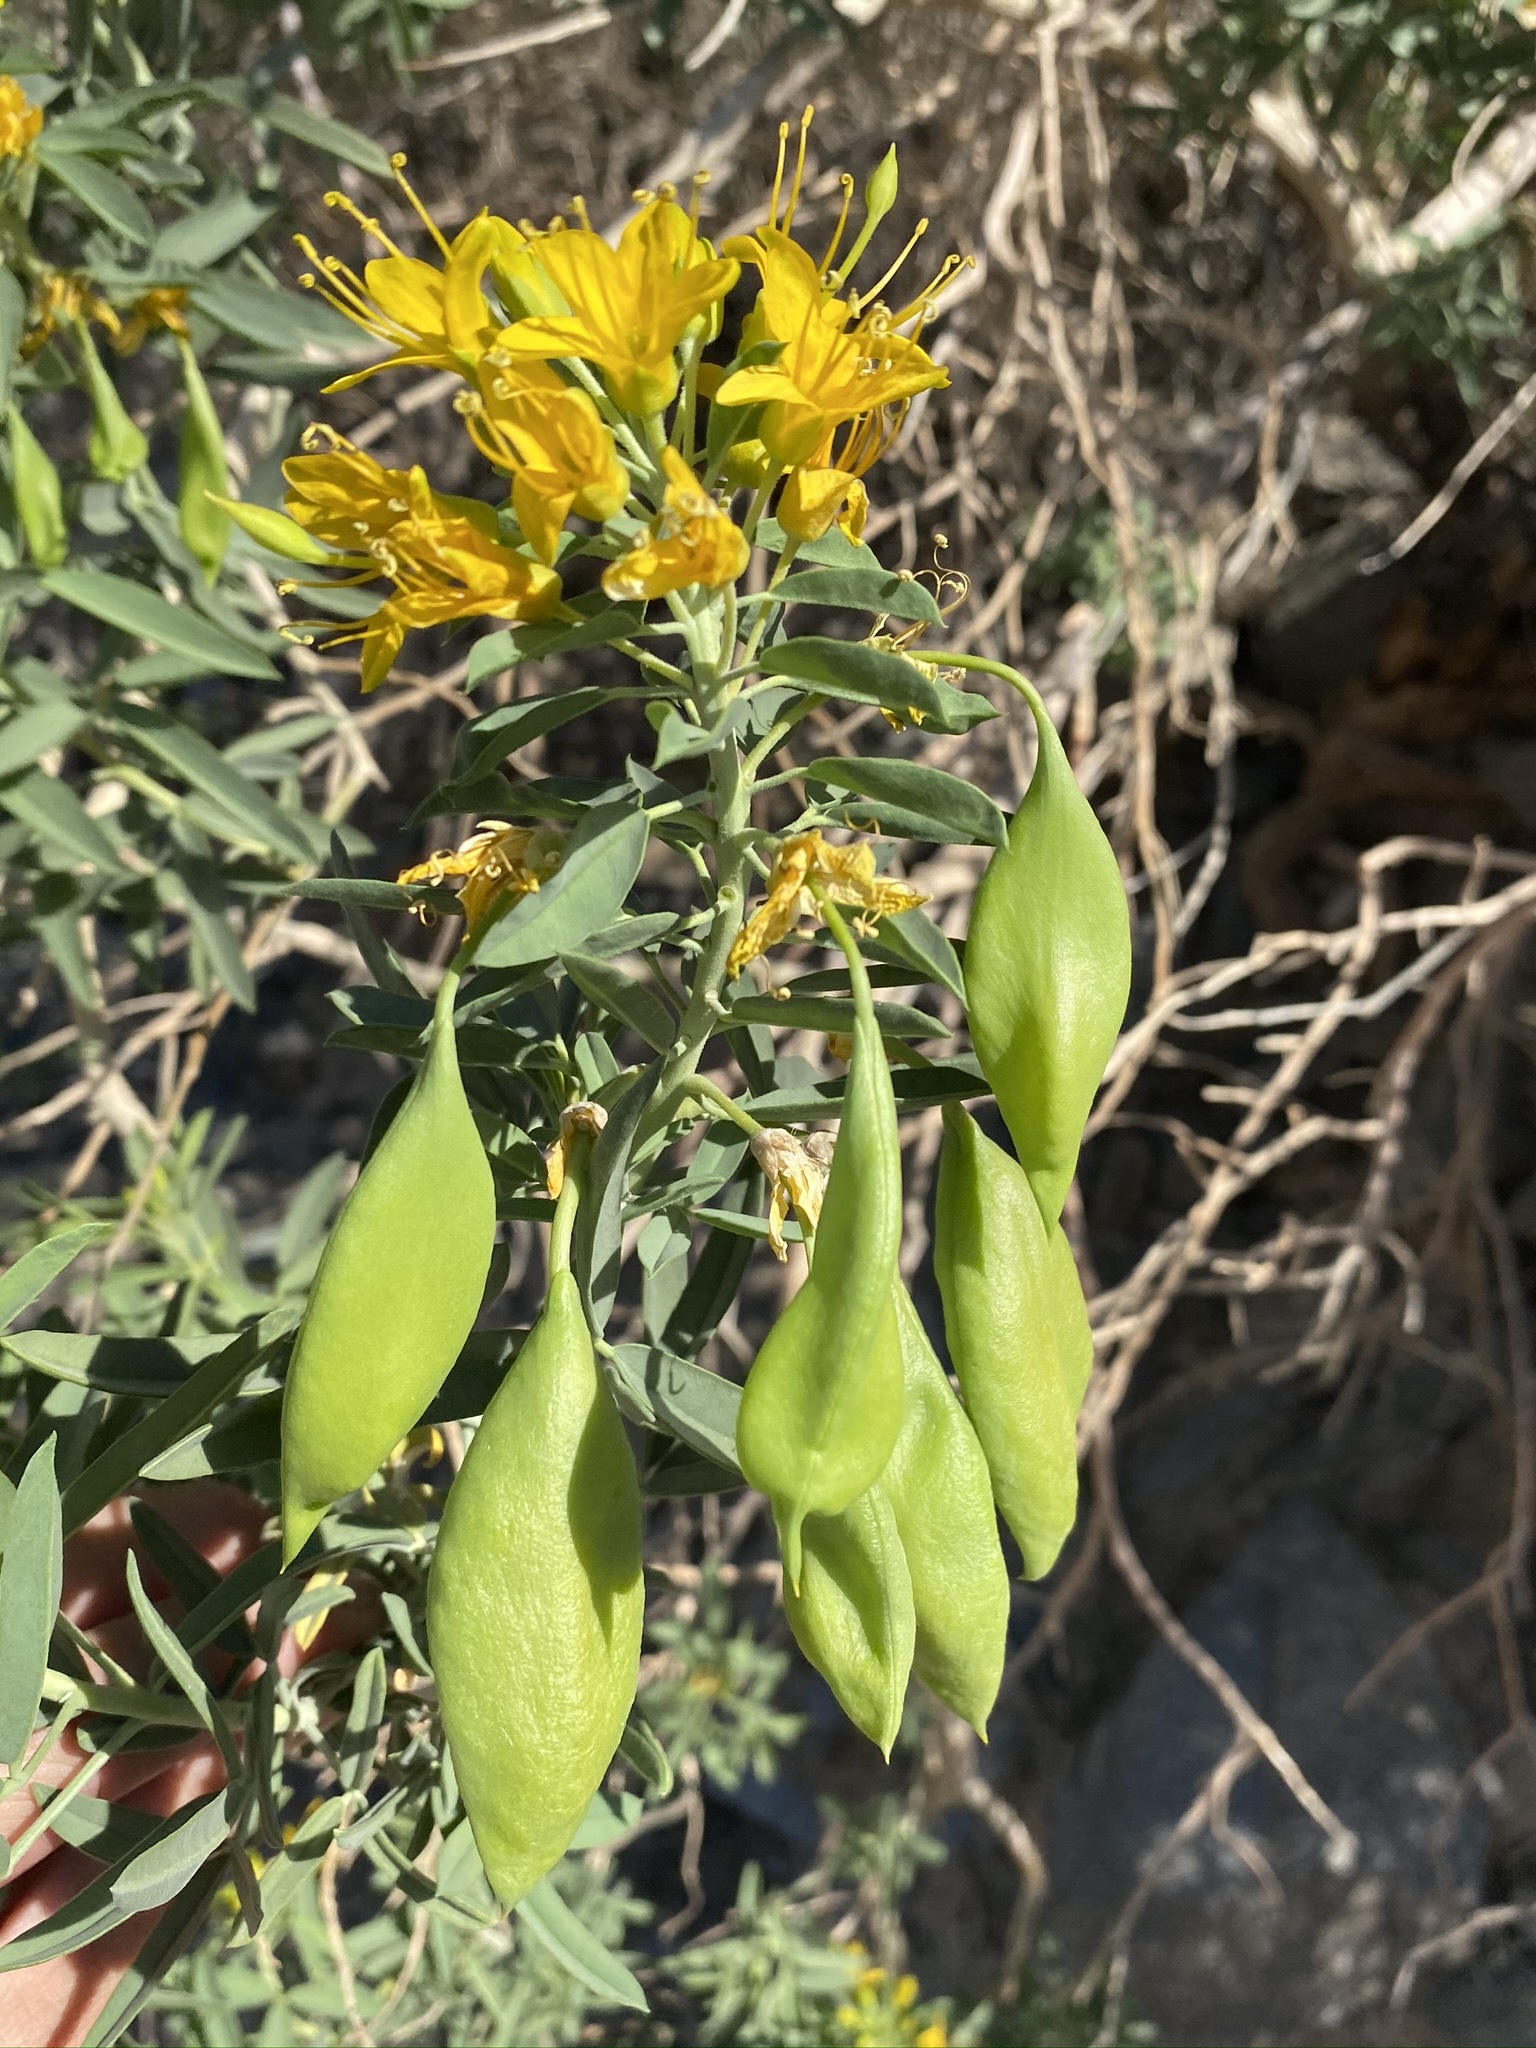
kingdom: Plantae
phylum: Tracheophyta
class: Magnoliopsida
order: Brassicales
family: Cleomaceae
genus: Cleomella
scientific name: Cleomella arborea
